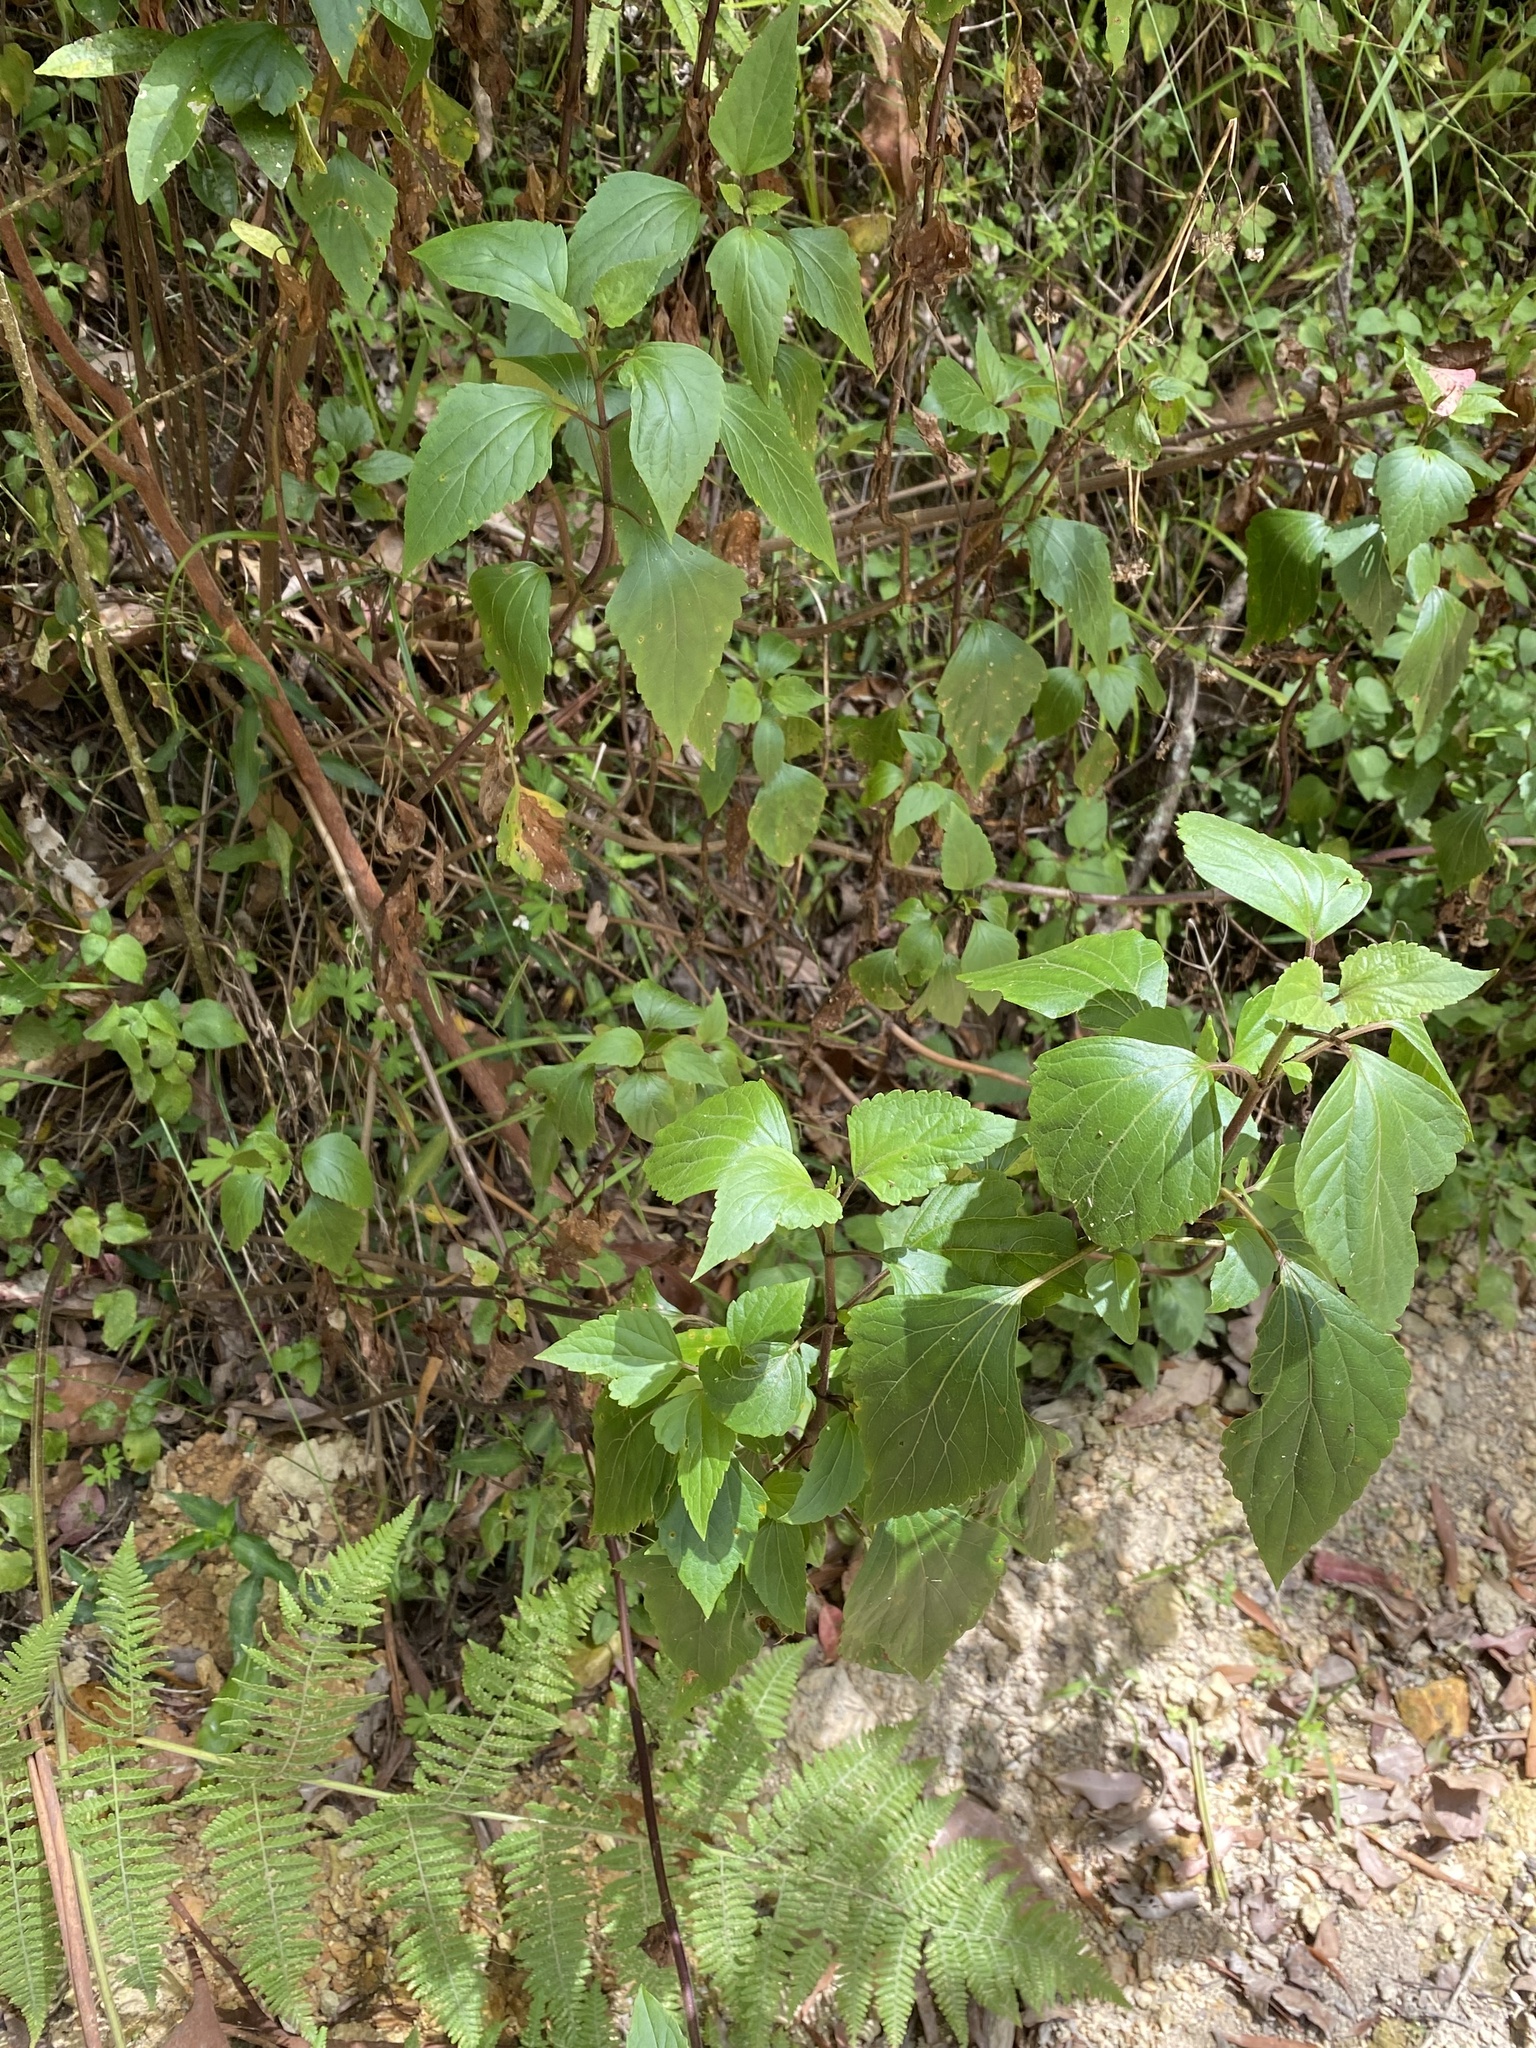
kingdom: Plantae
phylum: Tracheophyta
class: Magnoliopsida
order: Asterales
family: Asteraceae
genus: Ageratina
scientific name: Ageratina adenophora
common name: Sticky snakeroot
